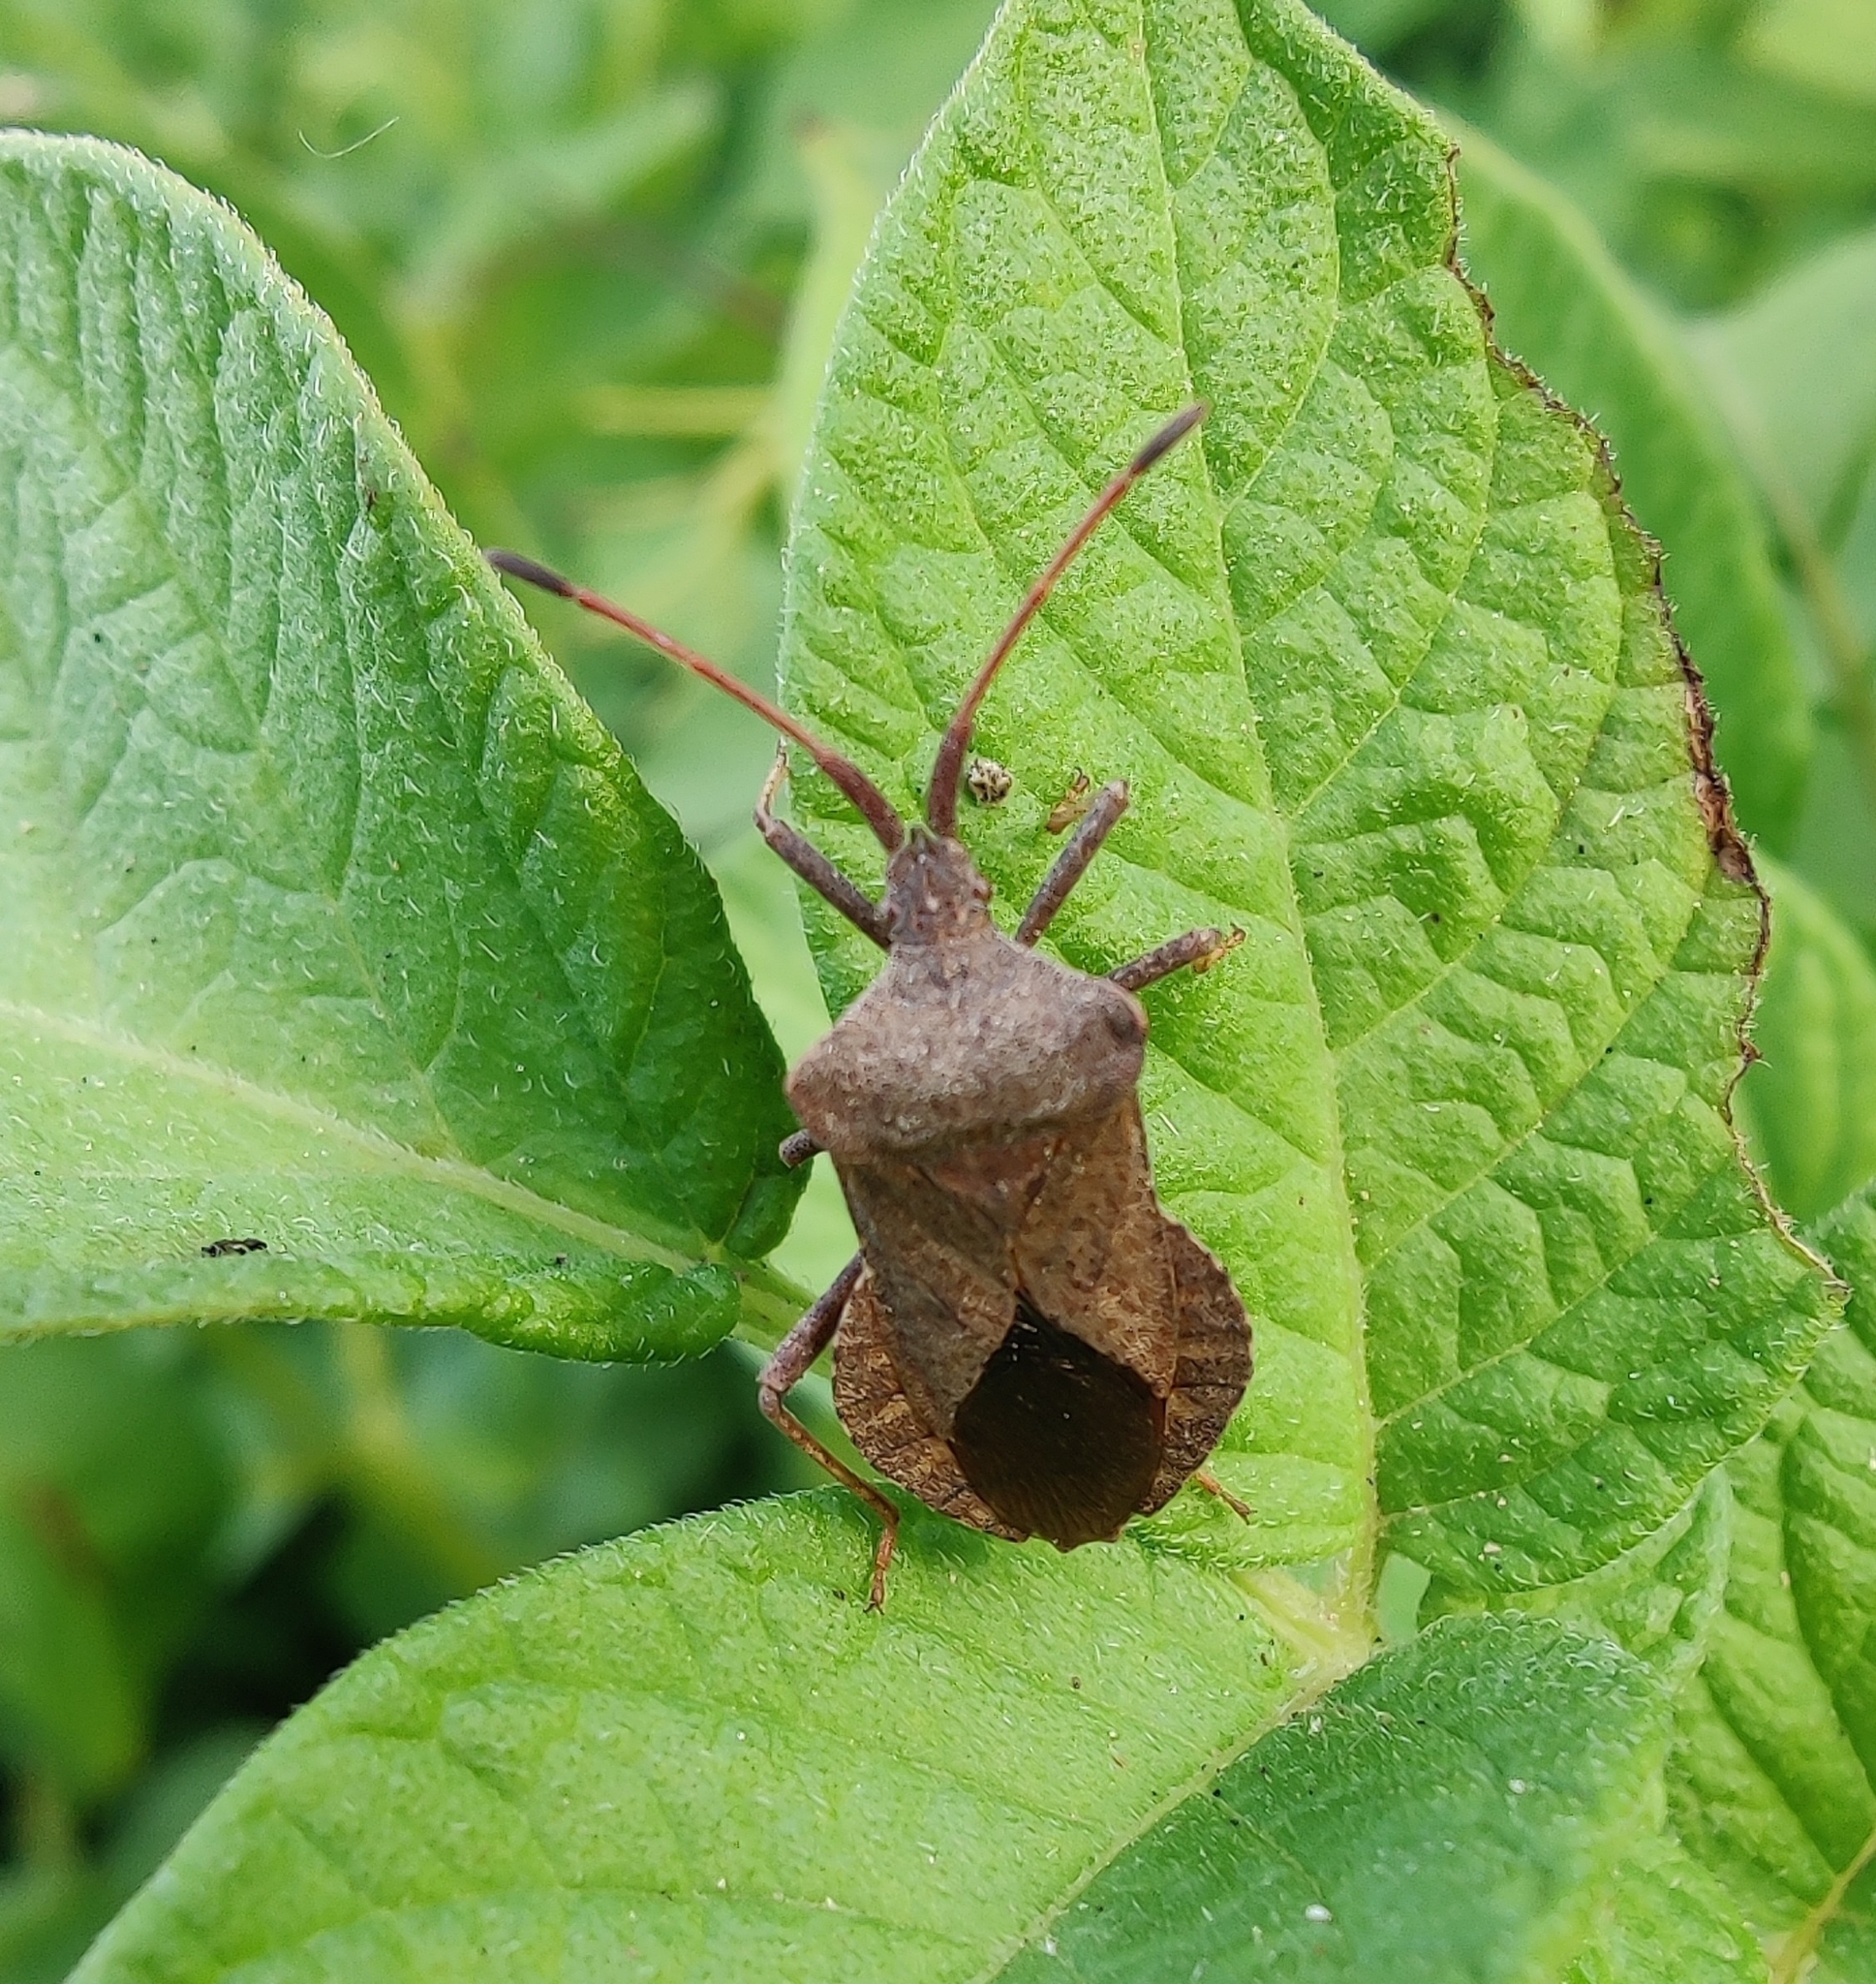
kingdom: Animalia
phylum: Arthropoda
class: Insecta
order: Hemiptera
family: Coreidae
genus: Coreus
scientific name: Coreus marginatus
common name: Dock bug
